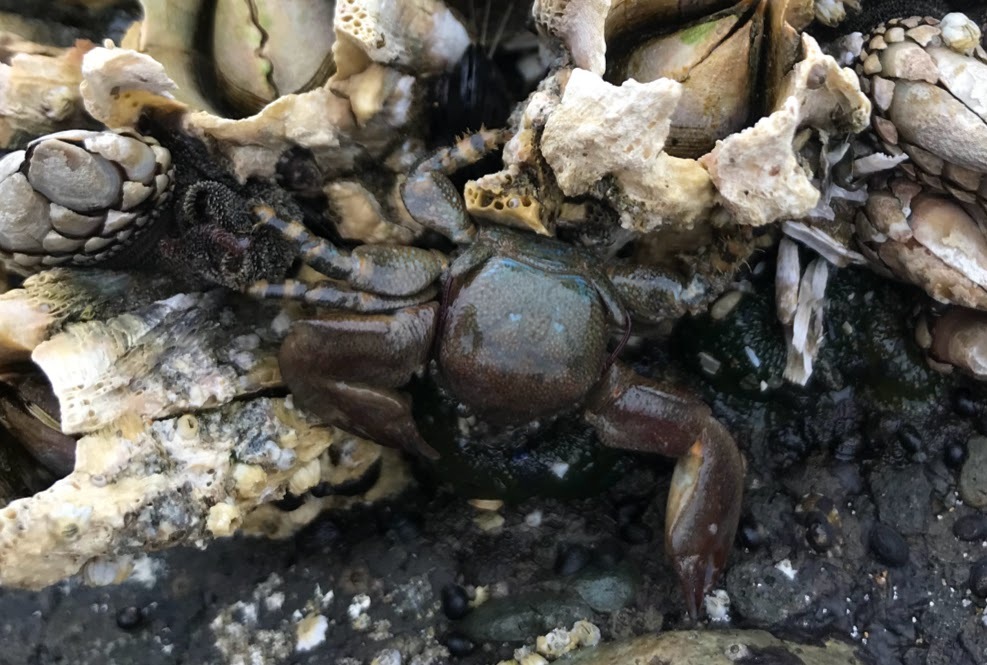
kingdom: Animalia
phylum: Arthropoda
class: Malacostraca
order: Decapoda
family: Porcellanidae
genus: Petrolisthes
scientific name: Petrolisthes cinctipes
